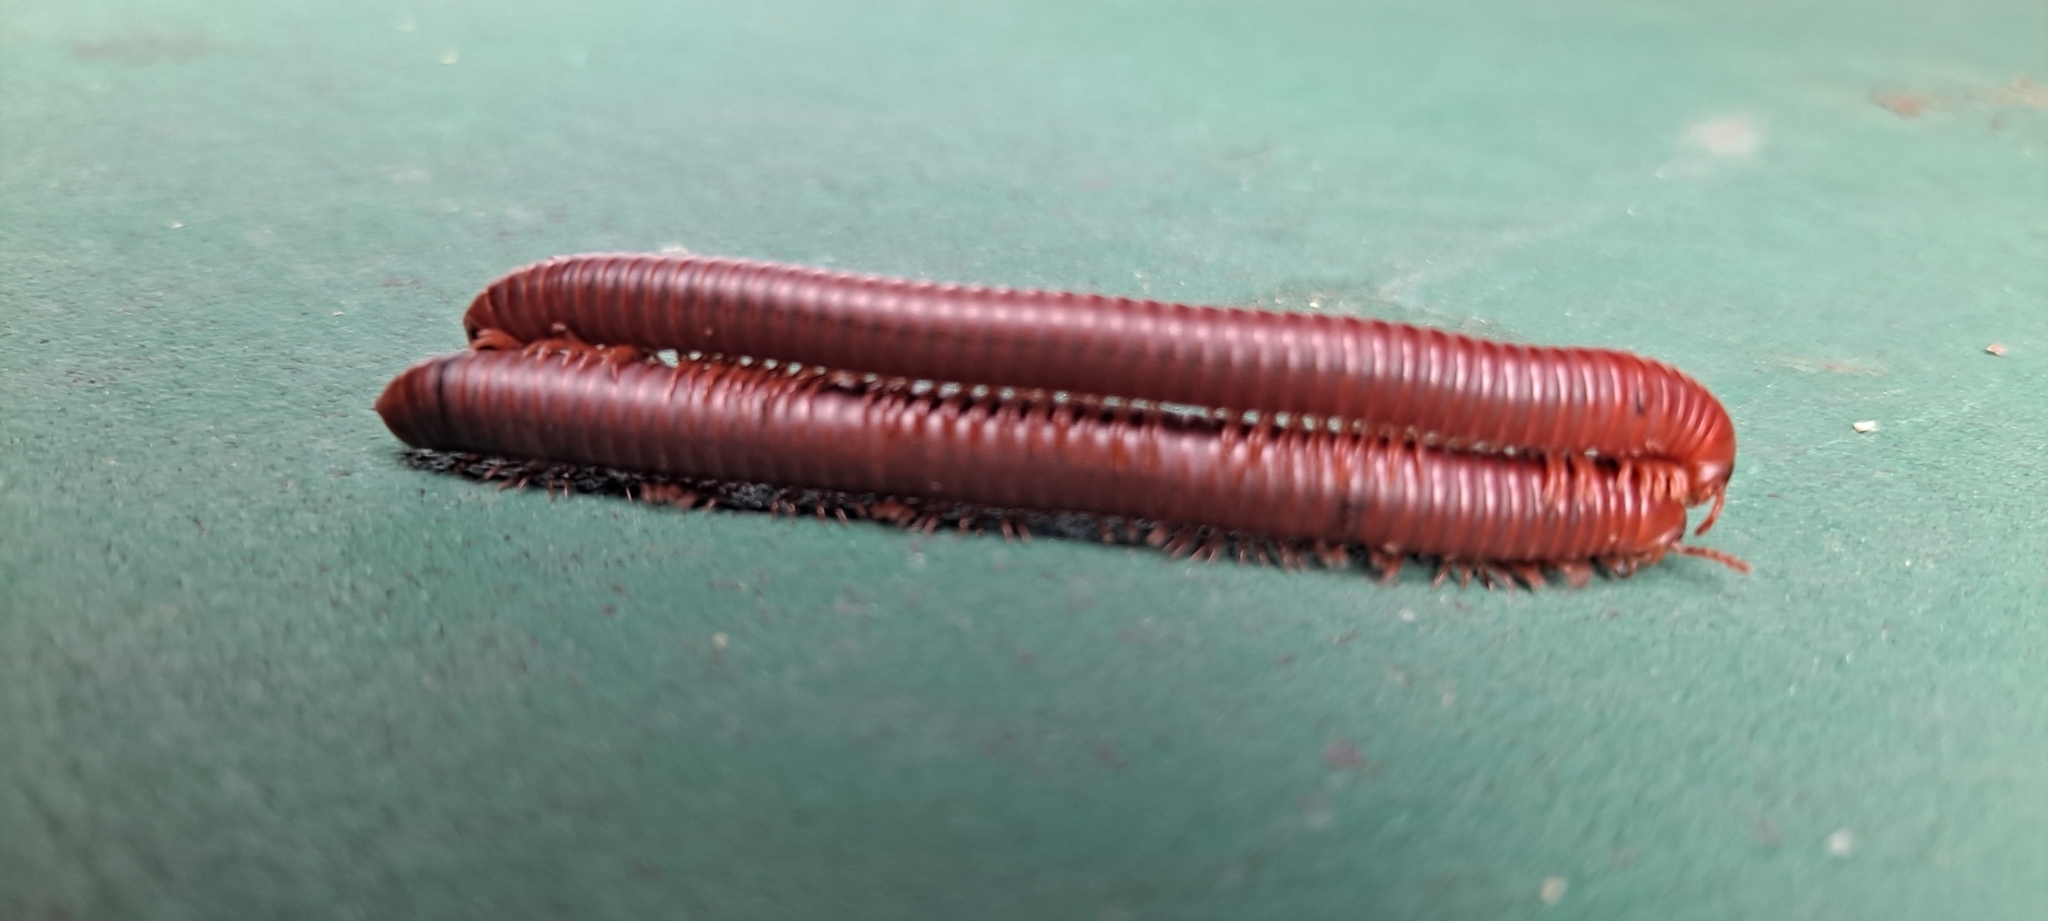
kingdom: Animalia
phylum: Arthropoda
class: Diplopoda
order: Spirobolida
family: Pachybolidae
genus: Trigoniulus
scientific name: Trigoniulus corallinus
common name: Millipede
